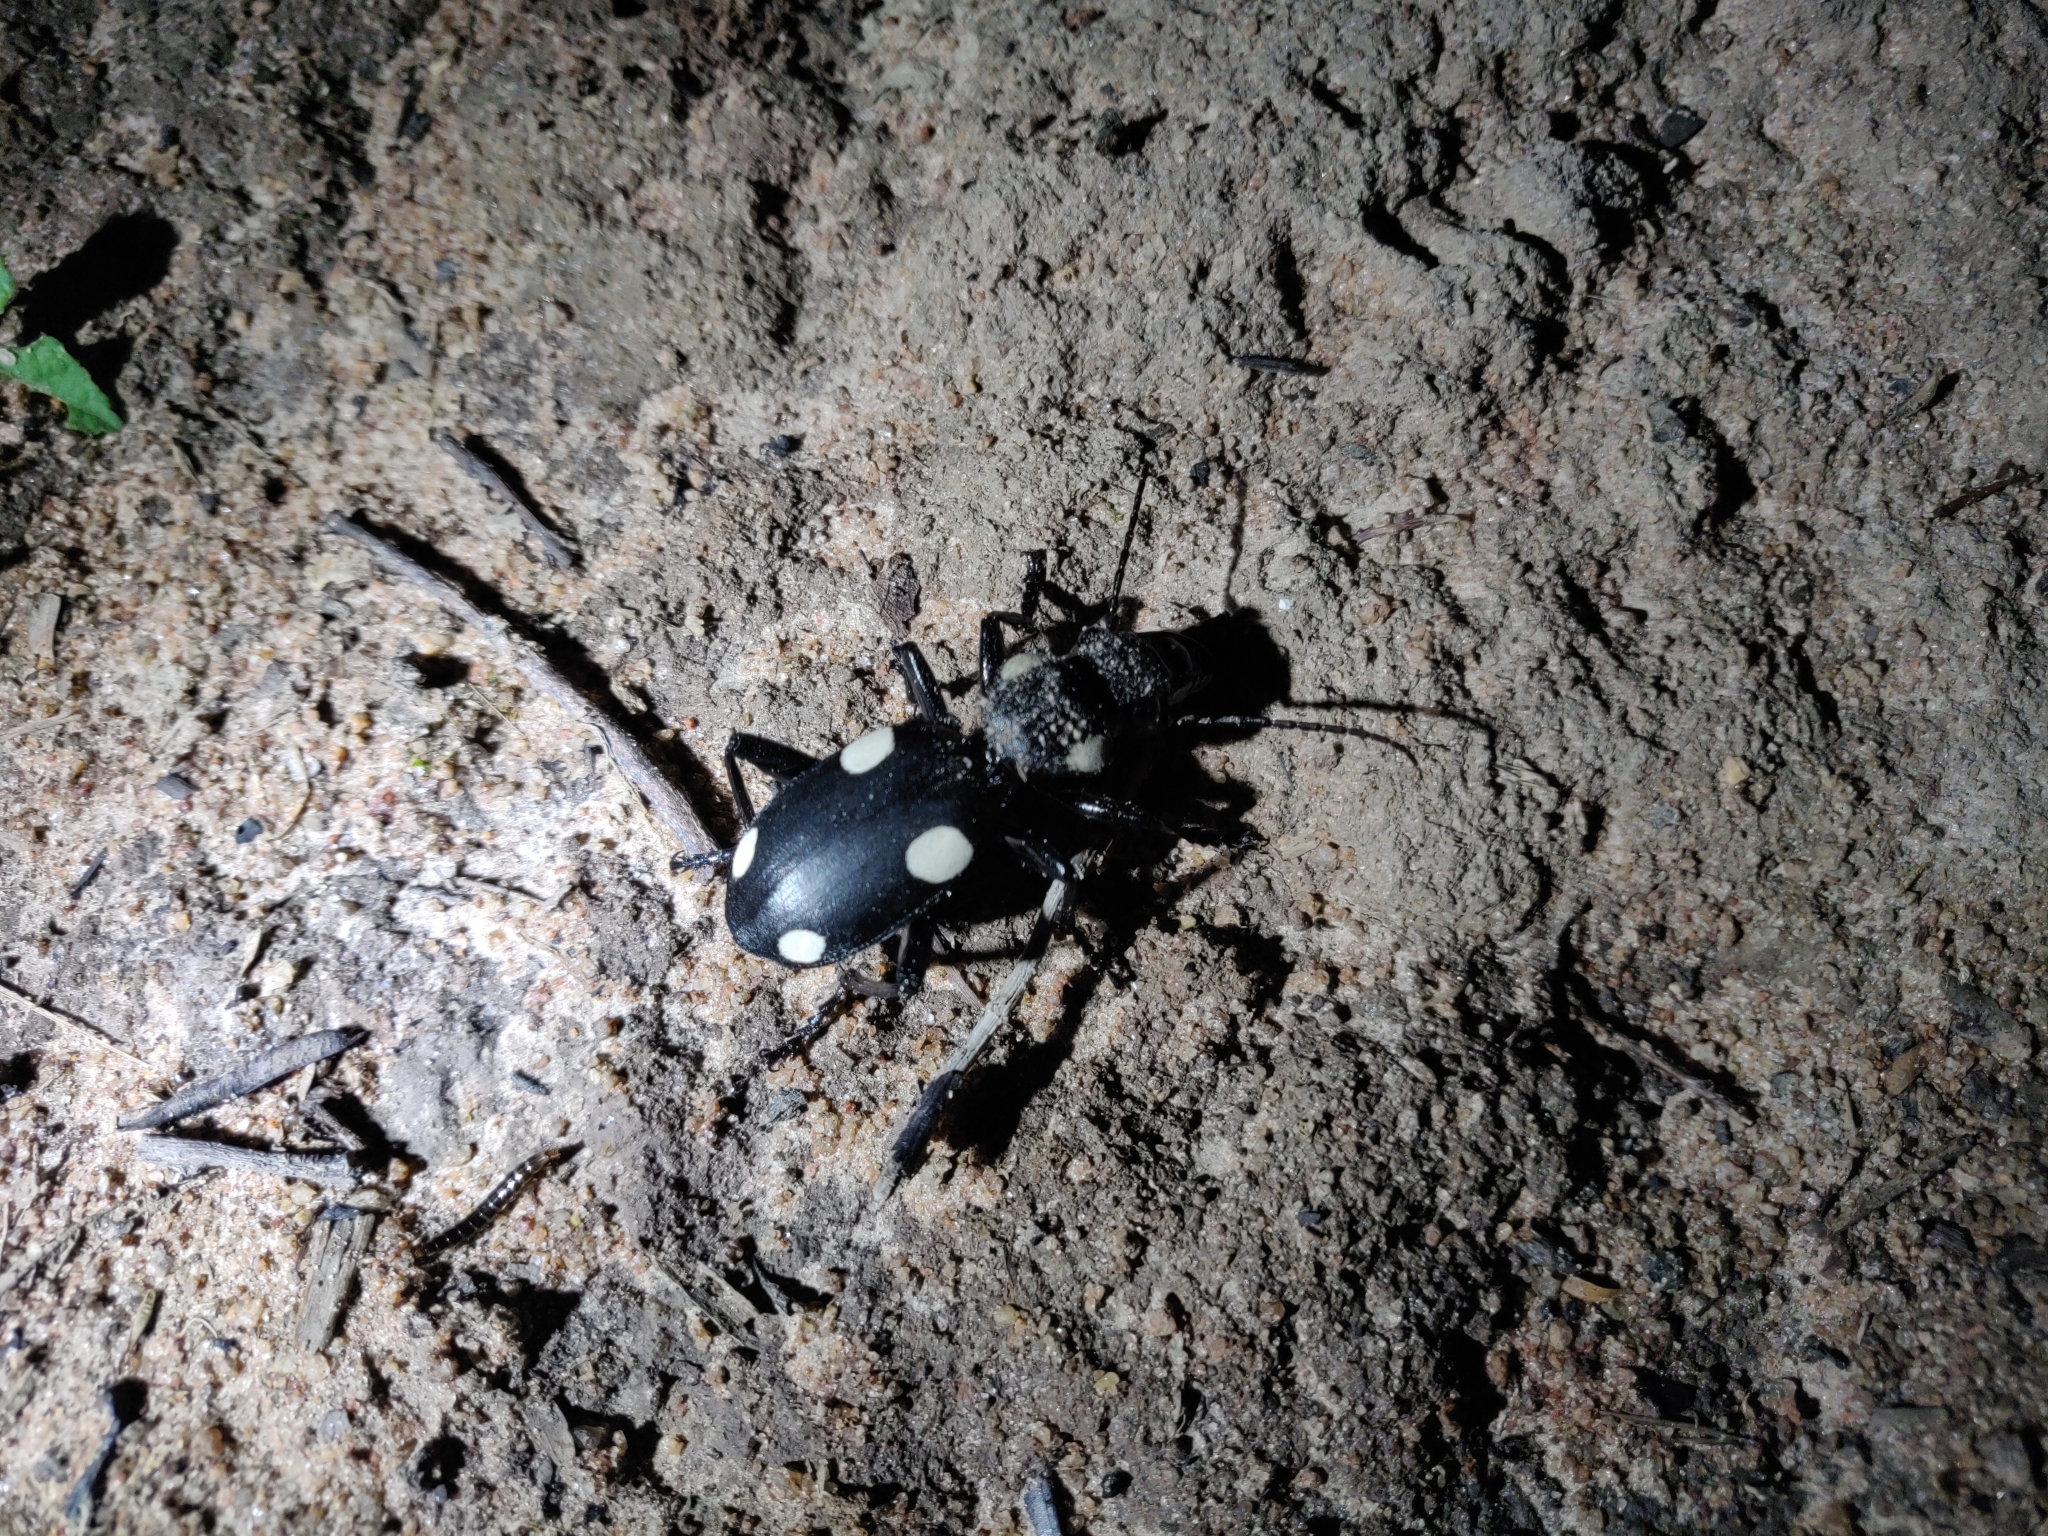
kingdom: Animalia
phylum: Arthropoda
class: Insecta
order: Coleoptera
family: Carabidae
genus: Anthia
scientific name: Anthia sexguttata
